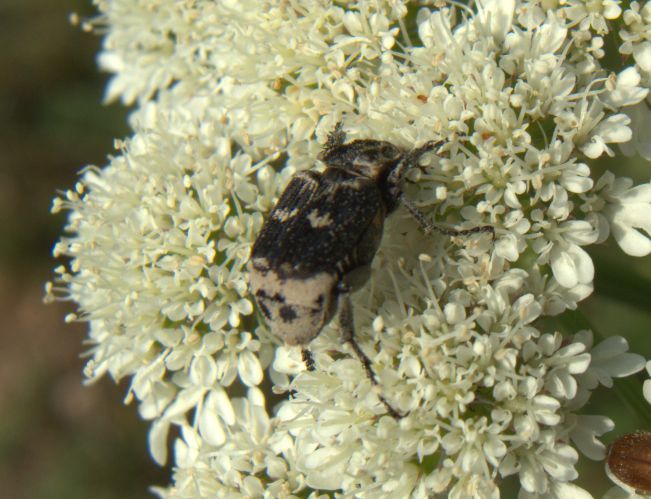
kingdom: Animalia
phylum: Arthropoda
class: Insecta
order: Coleoptera
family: Scarabaeidae
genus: Valgus
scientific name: Valgus hemipterus
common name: Bug flower chafer
